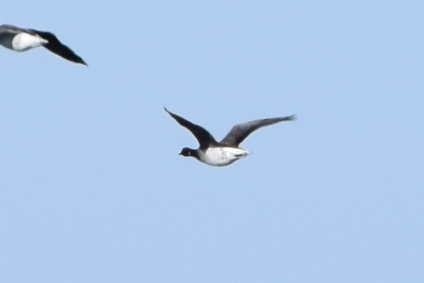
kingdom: Animalia
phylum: Chordata
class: Aves
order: Anseriformes
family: Anatidae
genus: Branta
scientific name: Branta bernicla
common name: Brant goose
